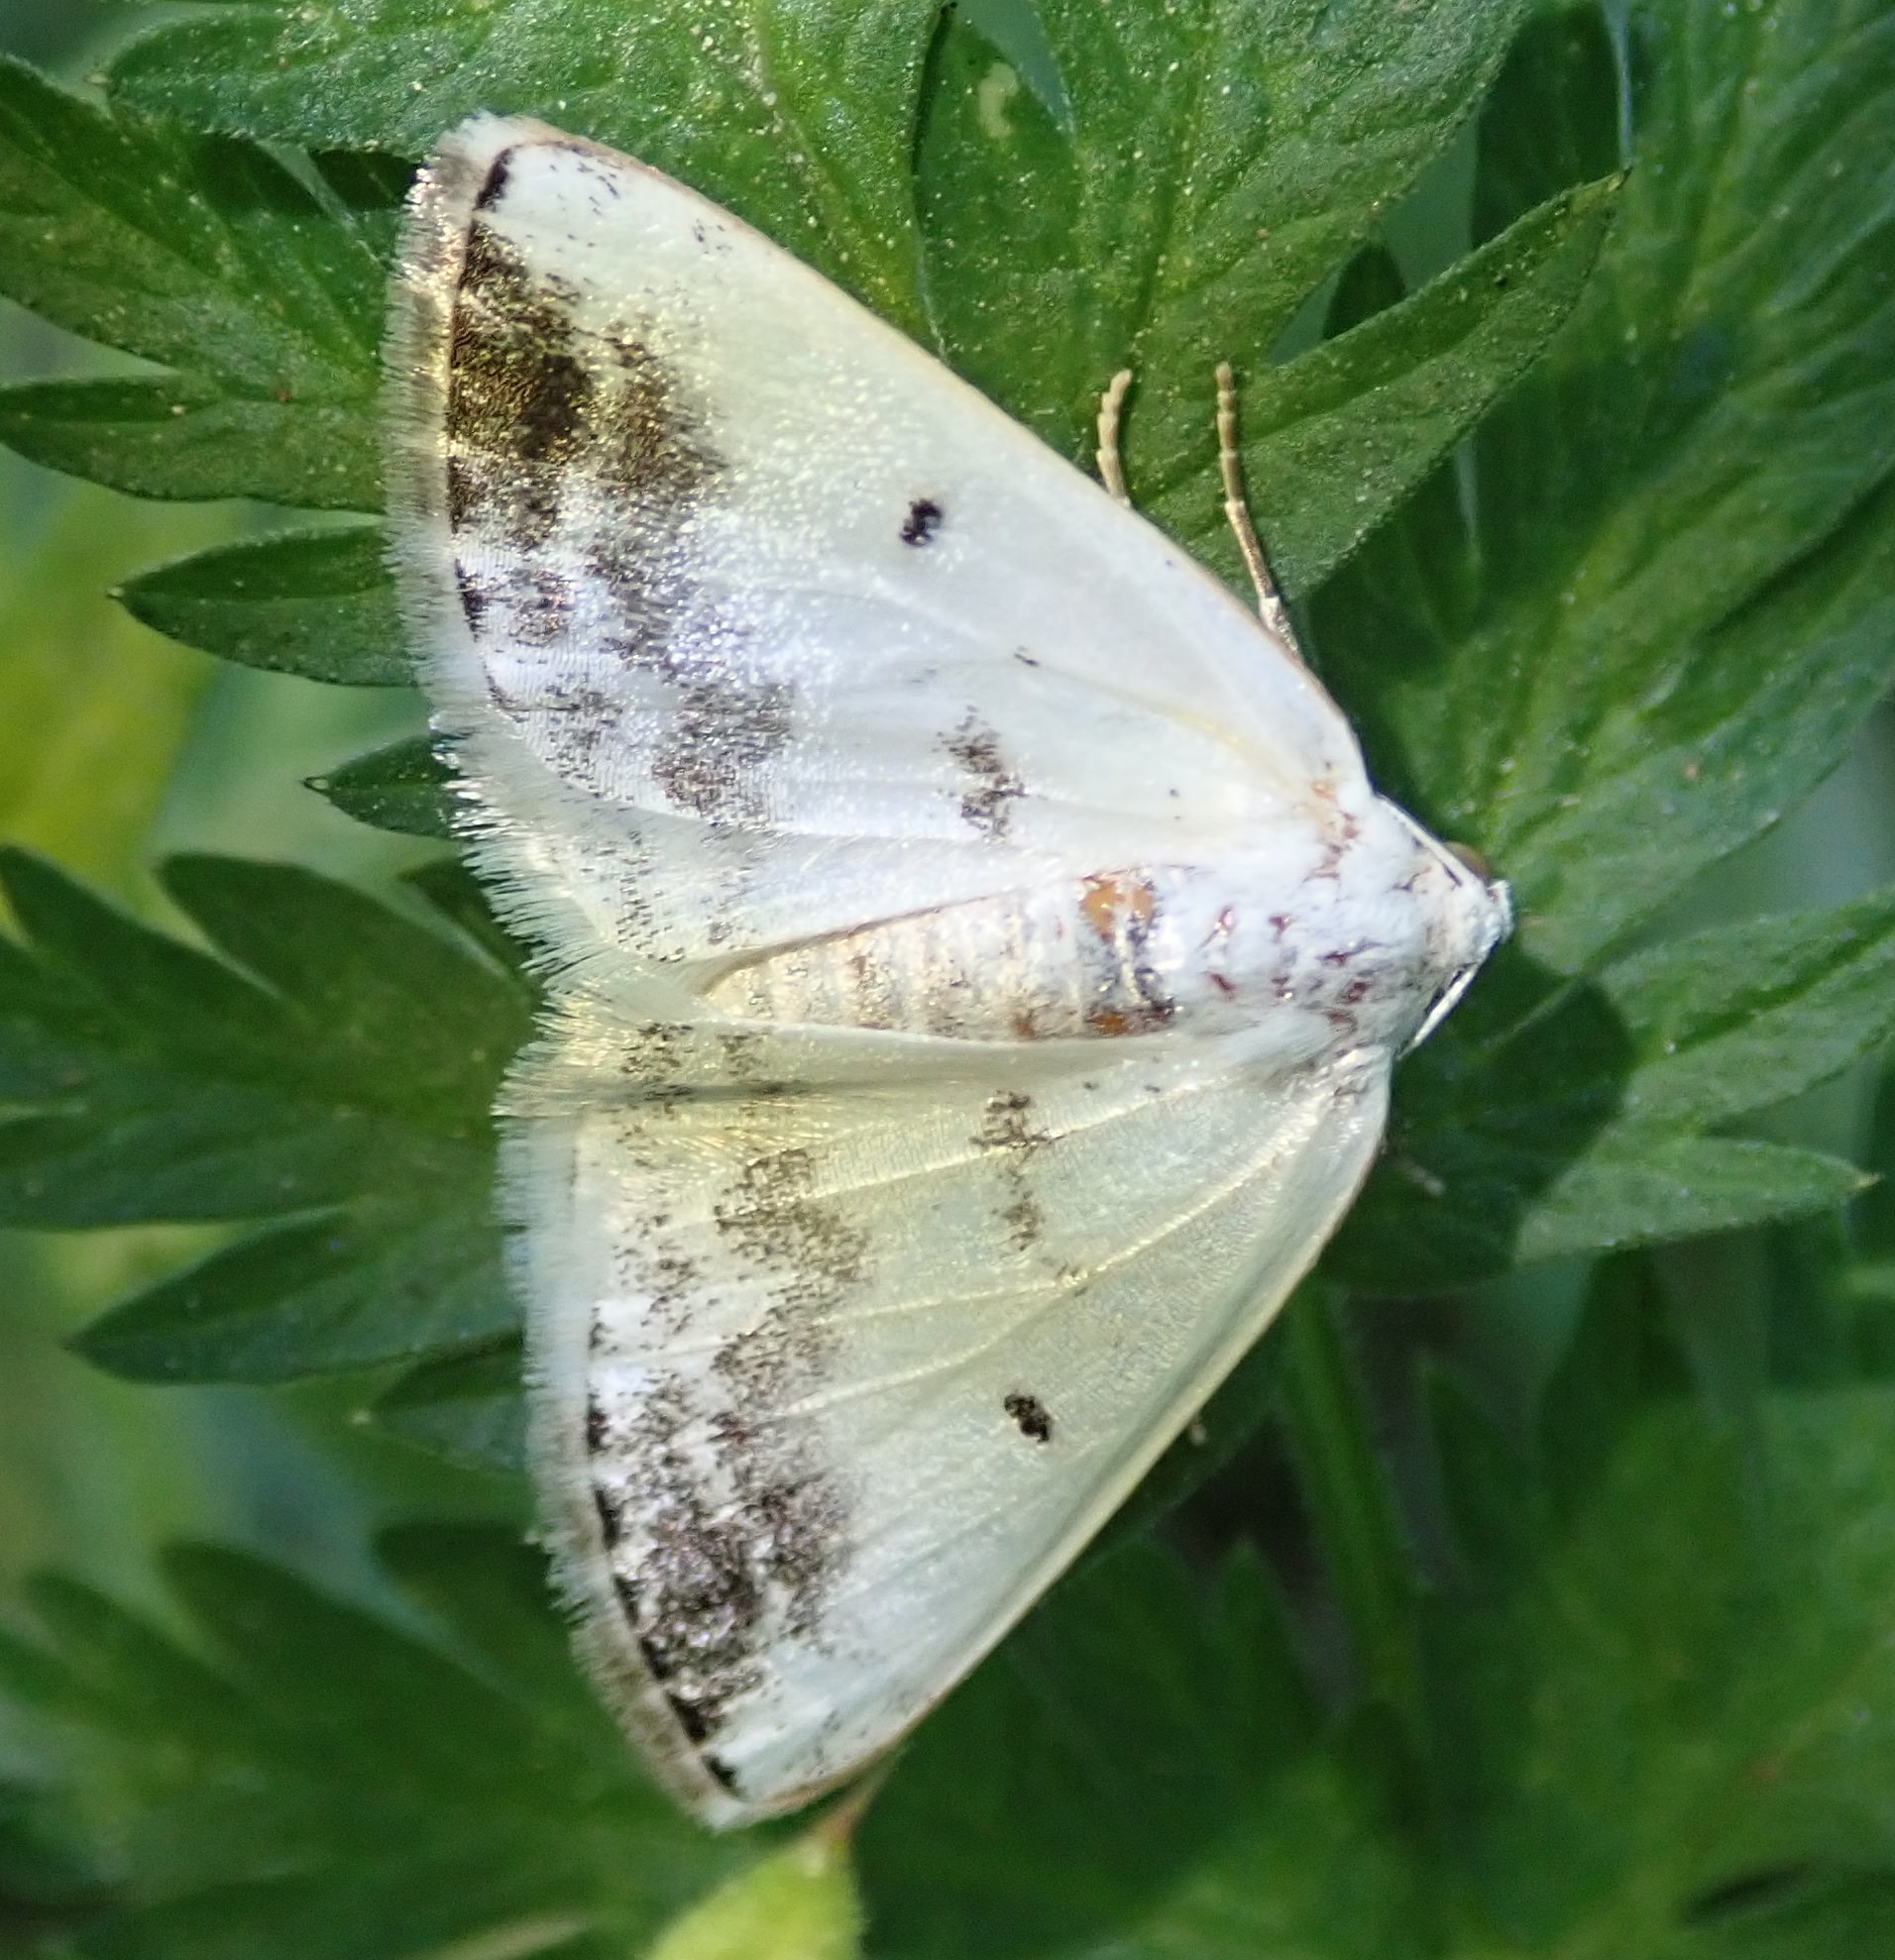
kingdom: Animalia
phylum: Arthropoda
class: Insecta
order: Lepidoptera
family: Geometridae
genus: Lomographa
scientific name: Lomographa temerata
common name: Clouded silver
